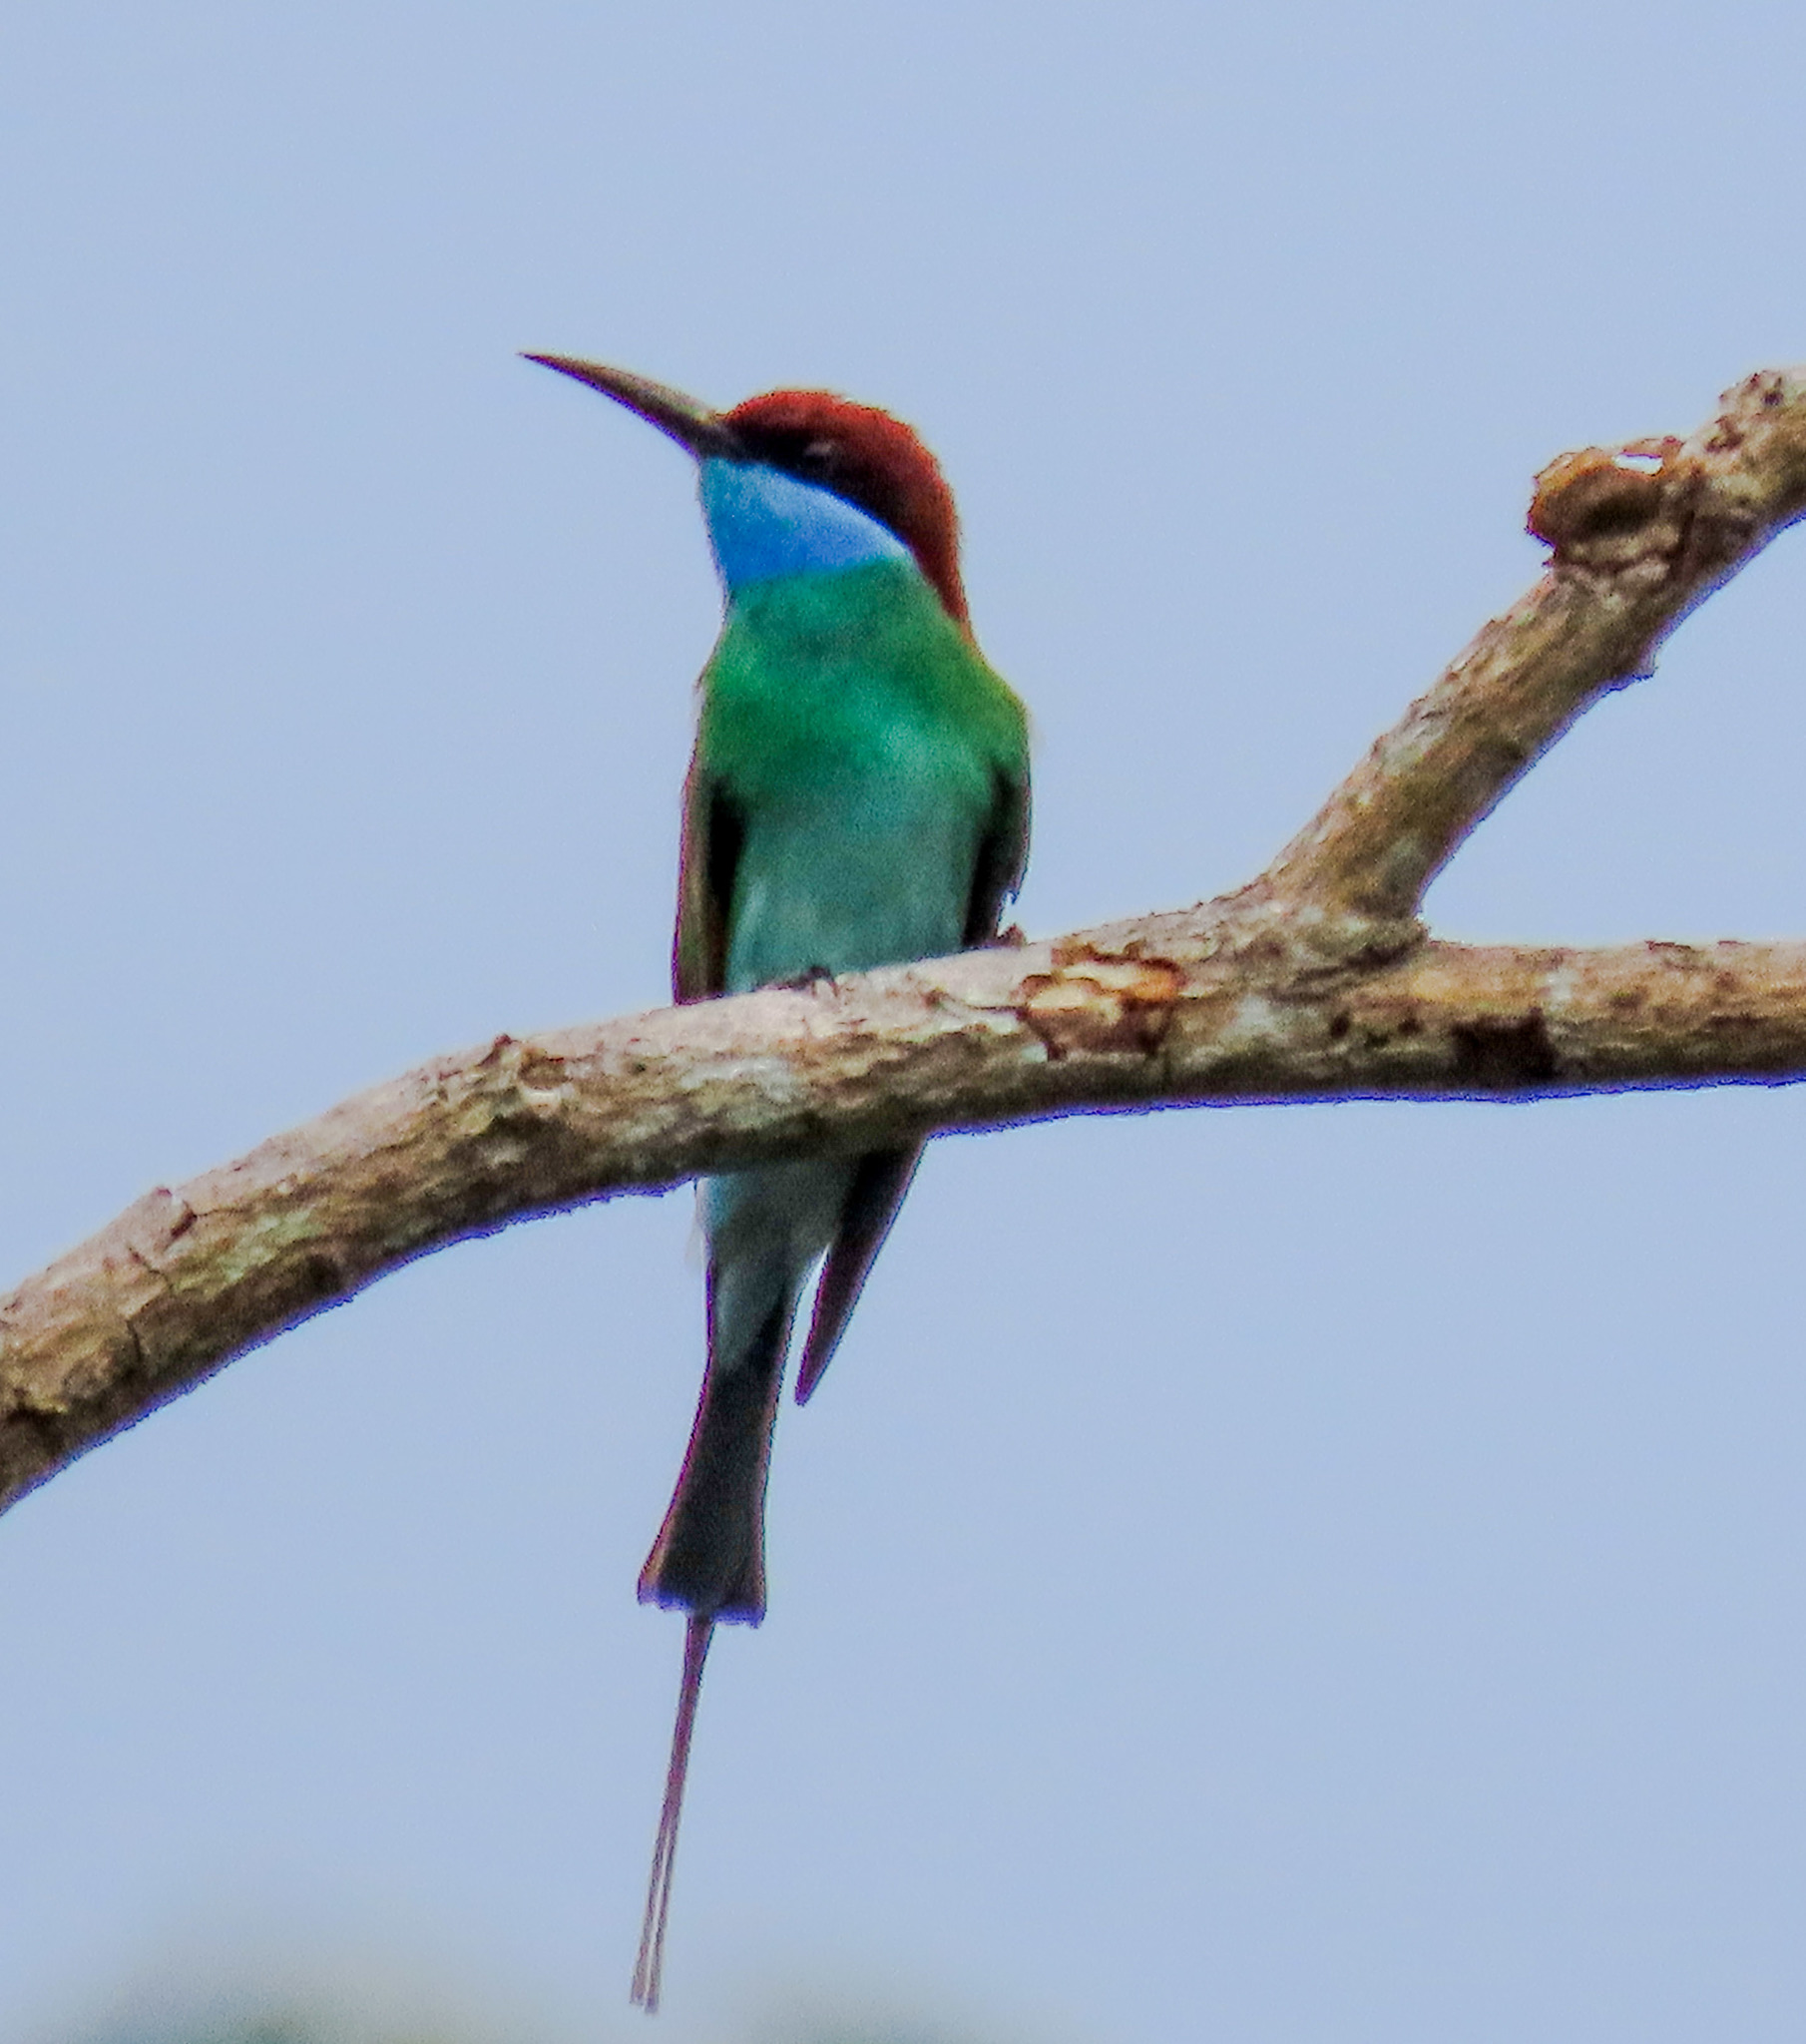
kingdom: Animalia
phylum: Chordata
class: Aves
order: Coraciiformes
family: Meropidae
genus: Merops
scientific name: Merops viridis
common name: Blue-throated bee-eater
